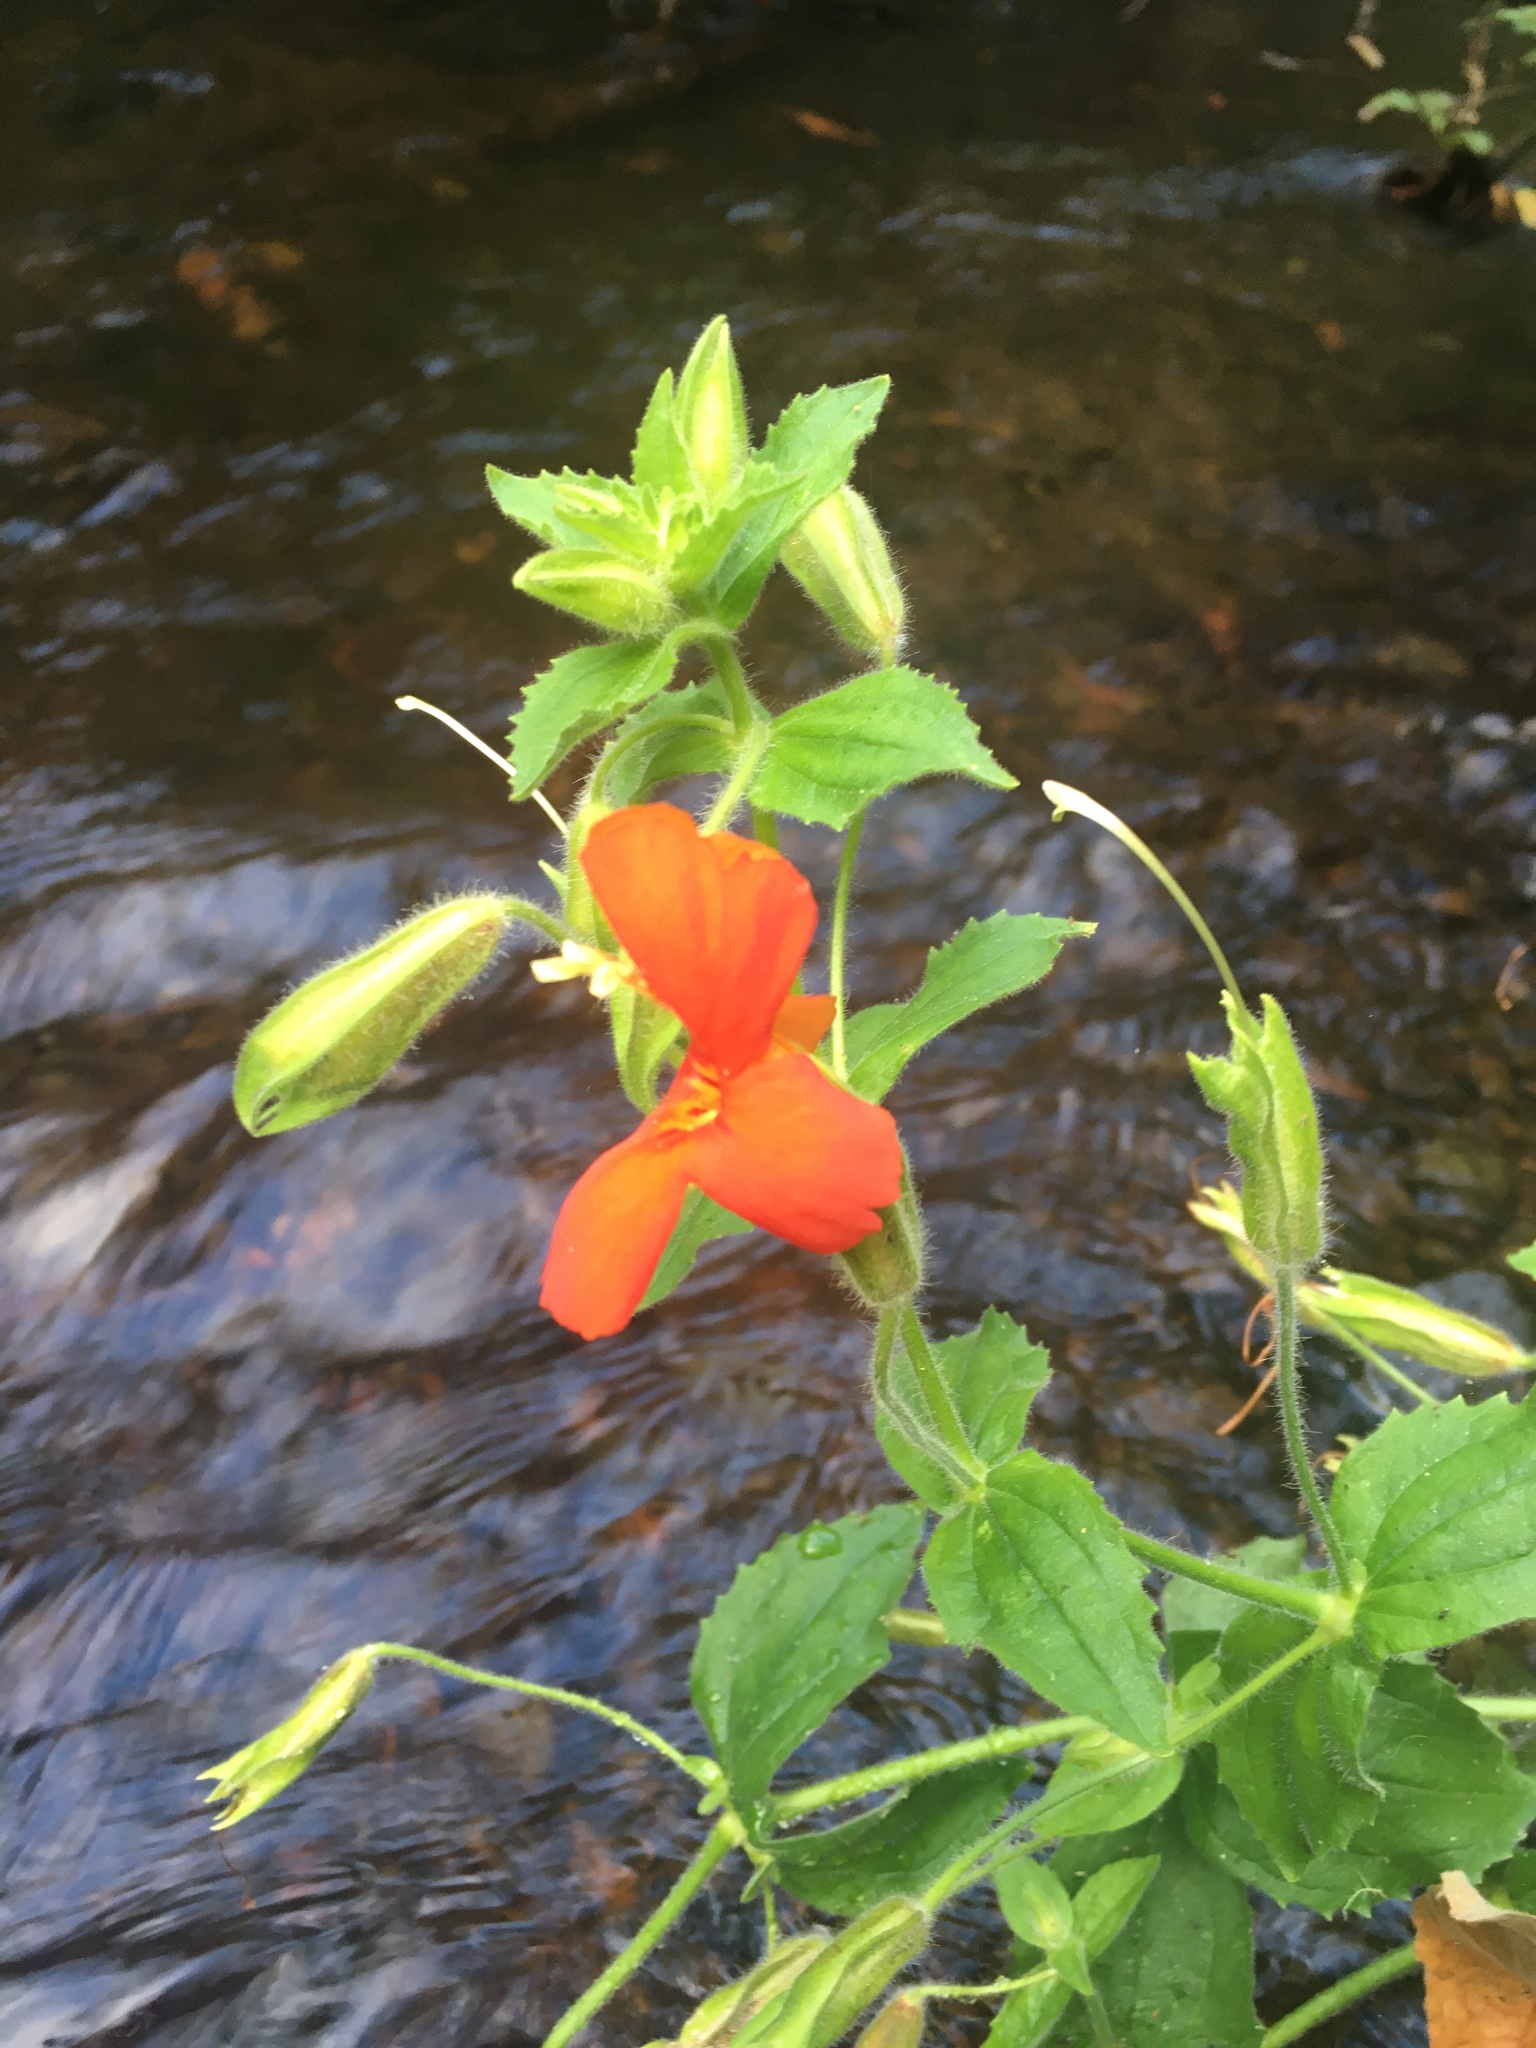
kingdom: Plantae
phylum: Tracheophyta
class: Magnoliopsida
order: Lamiales
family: Phrymaceae
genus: Erythranthe
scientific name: Erythranthe cardinalis
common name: Scarlet monkey-flower
